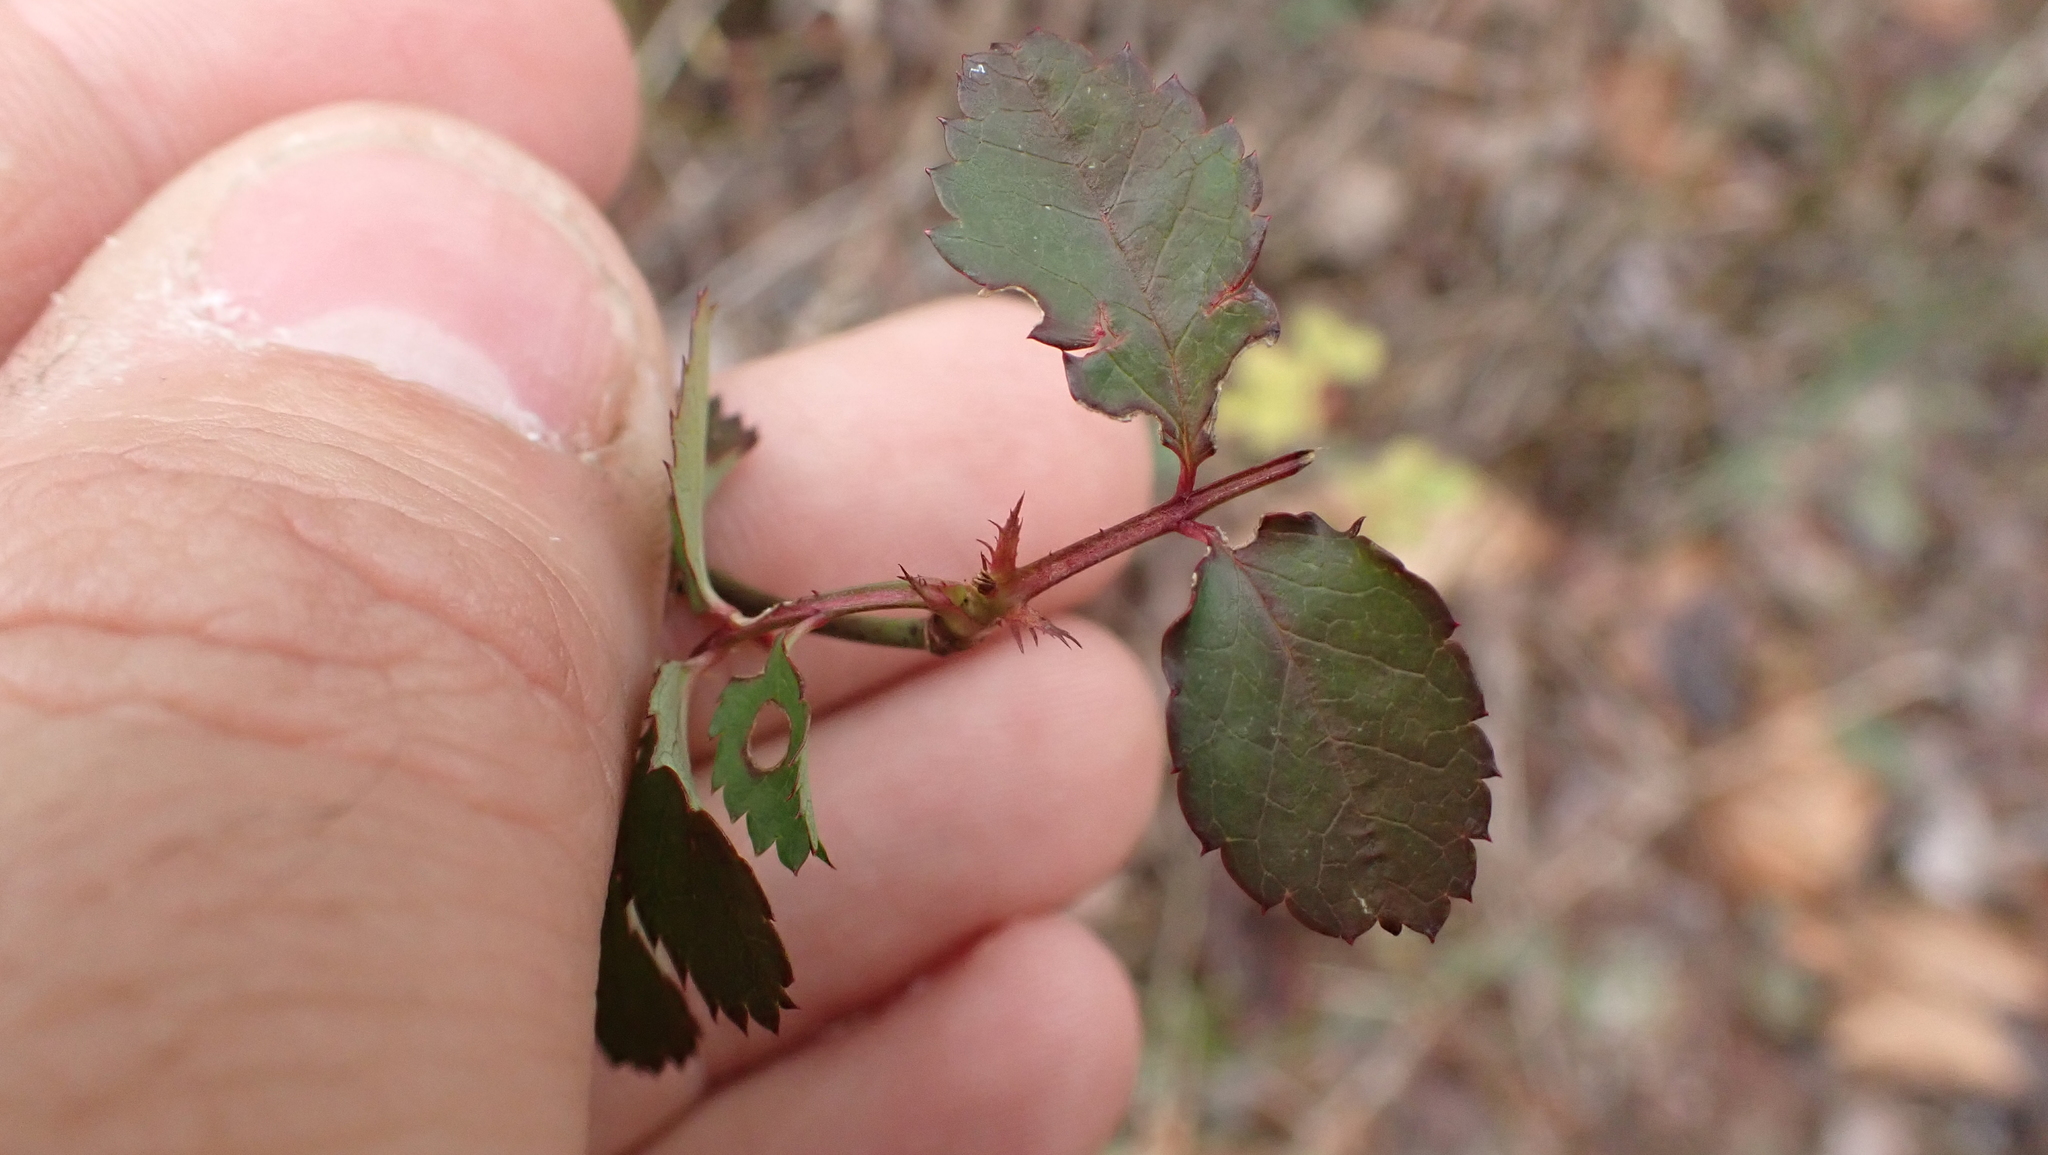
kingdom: Plantae
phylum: Tracheophyta
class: Magnoliopsida
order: Rosales
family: Rosaceae
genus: Rosa
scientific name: Rosa multiflora
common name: Multiflora rose
